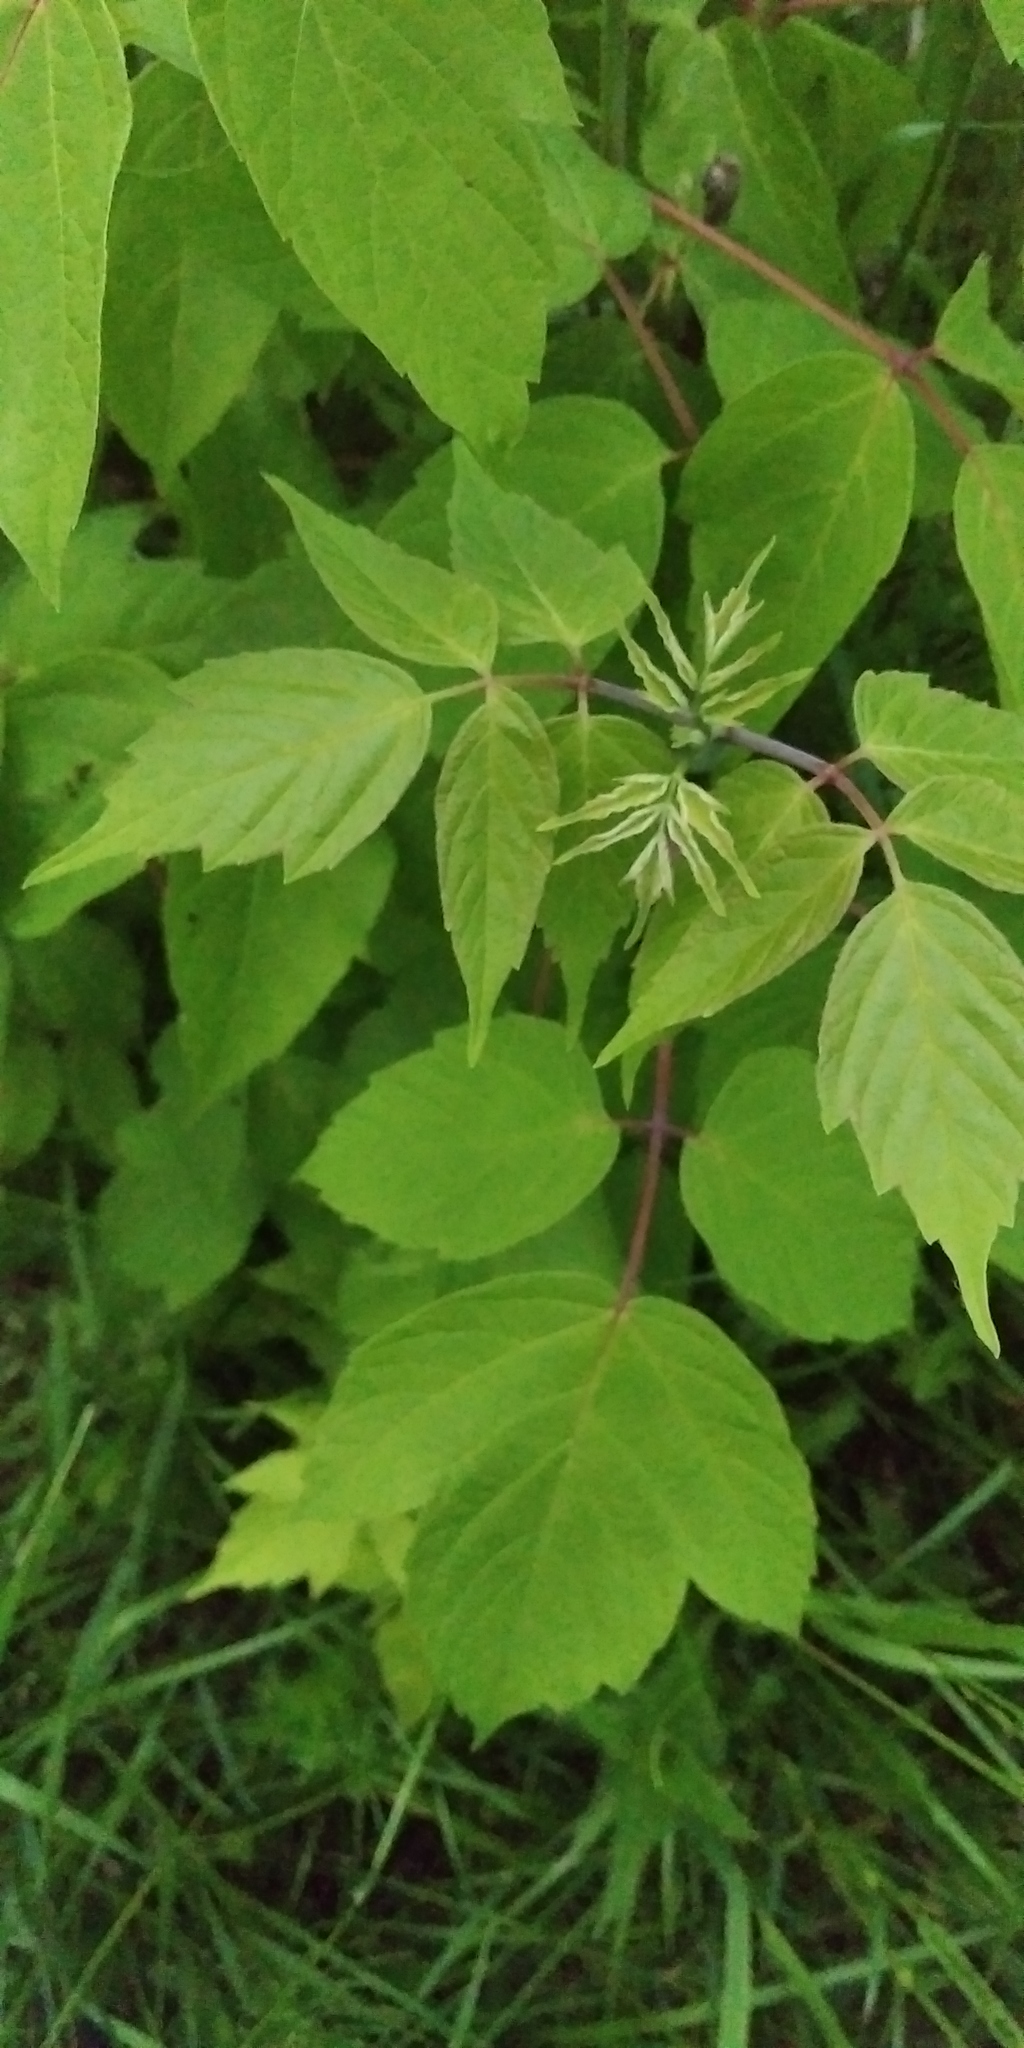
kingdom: Plantae
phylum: Tracheophyta
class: Magnoliopsida
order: Sapindales
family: Sapindaceae
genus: Acer
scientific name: Acer negundo
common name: Ashleaf maple
